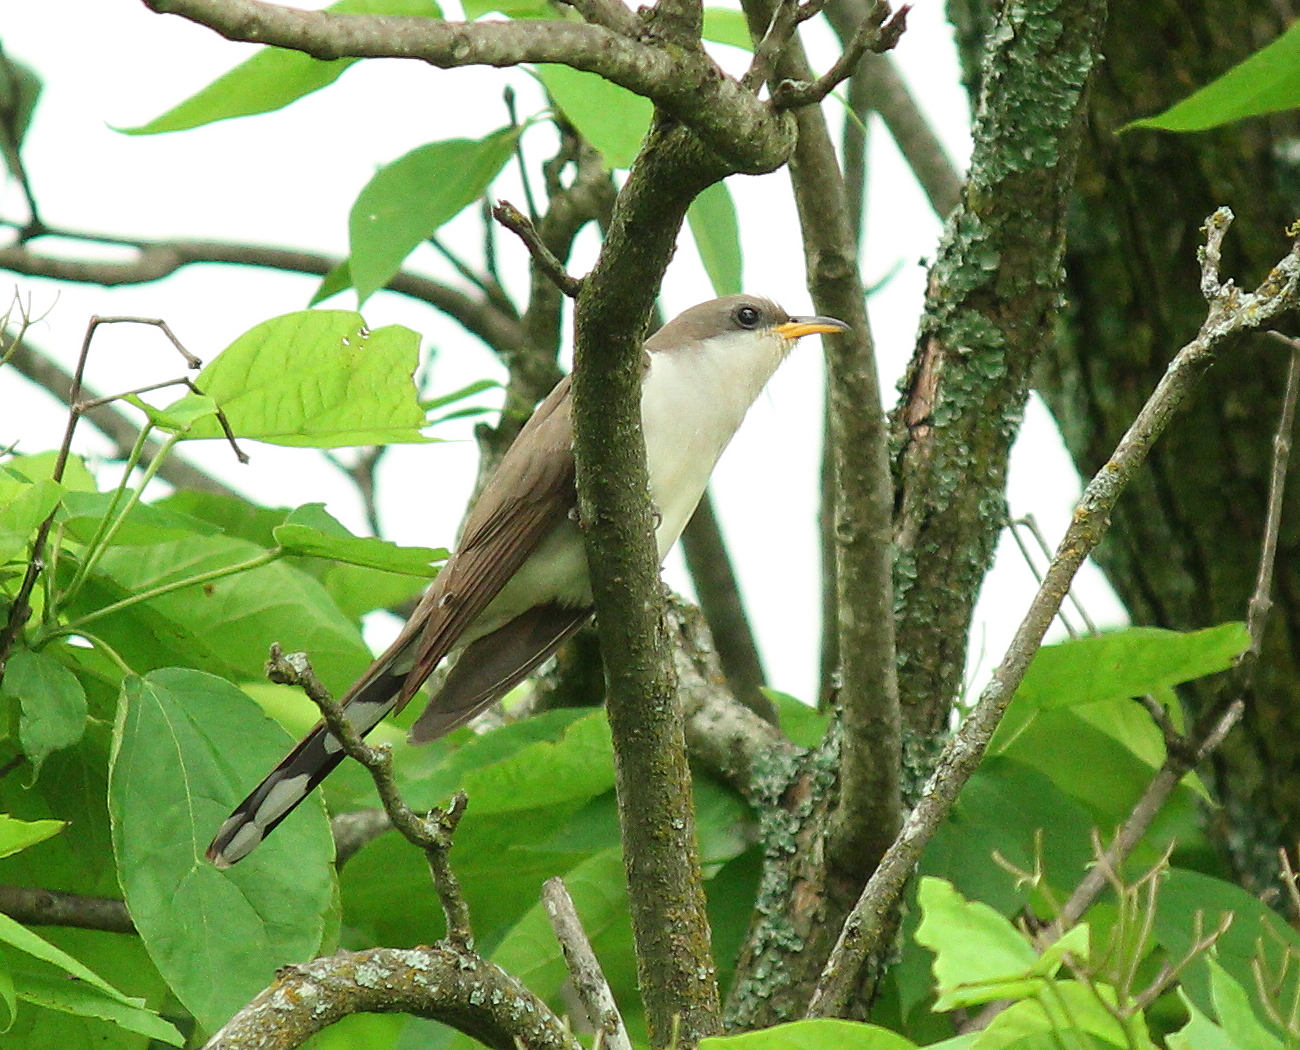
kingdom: Animalia
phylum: Chordata
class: Aves
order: Cuculiformes
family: Cuculidae
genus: Coccyzus
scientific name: Coccyzus americanus
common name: Yellow-billed cuckoo
